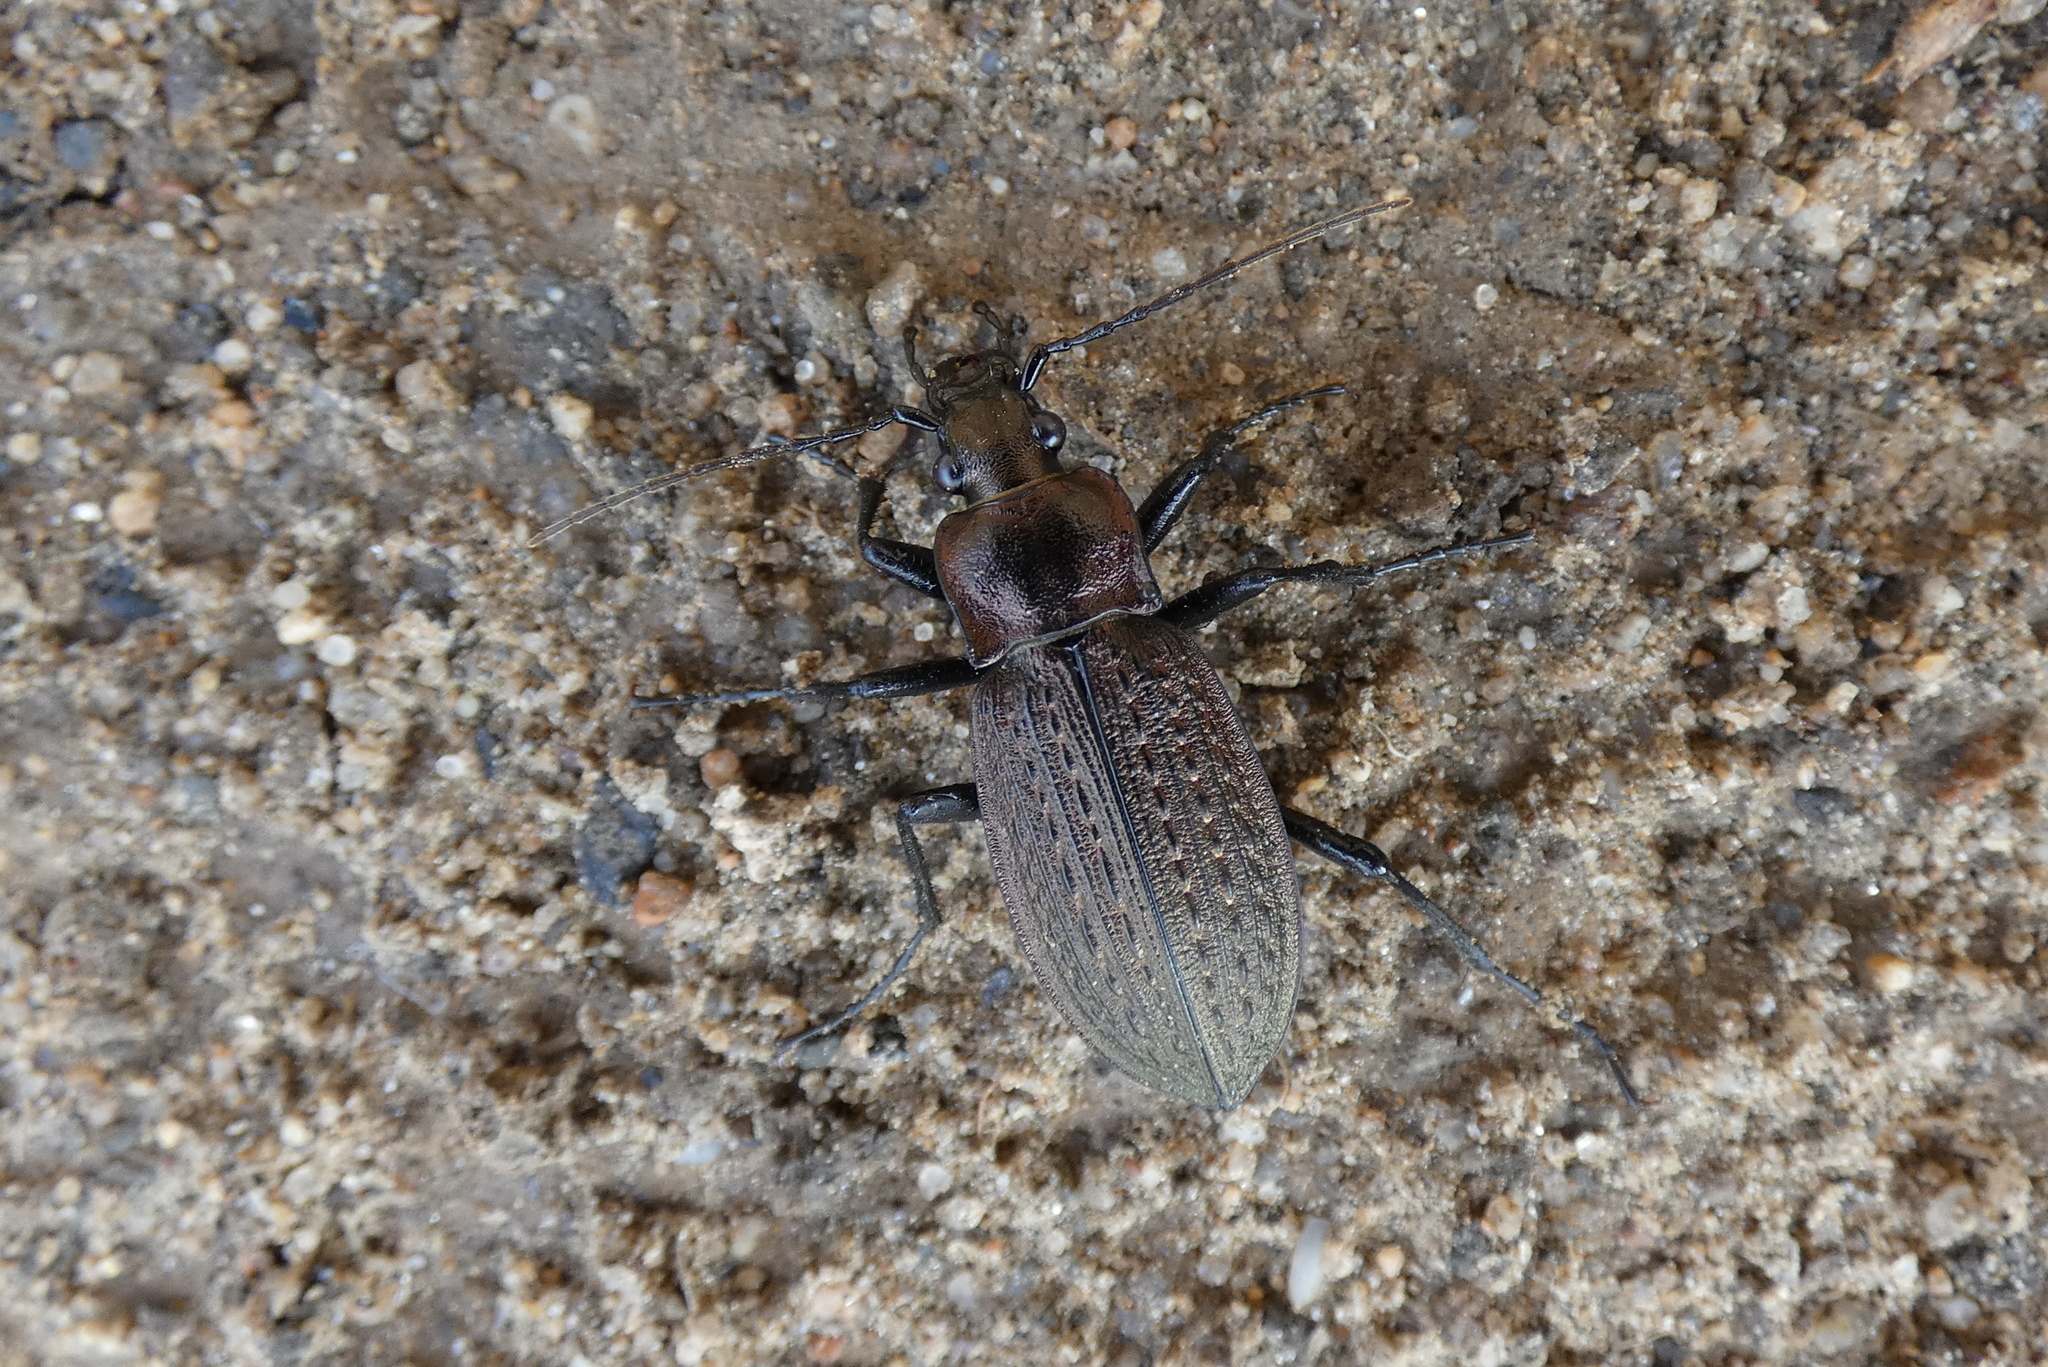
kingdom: Animalia
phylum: Arthropoda
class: Insecta
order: Coleoptera
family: Carabidae
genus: Carabus
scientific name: Carabus granulatus
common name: Granulate ground beetle
